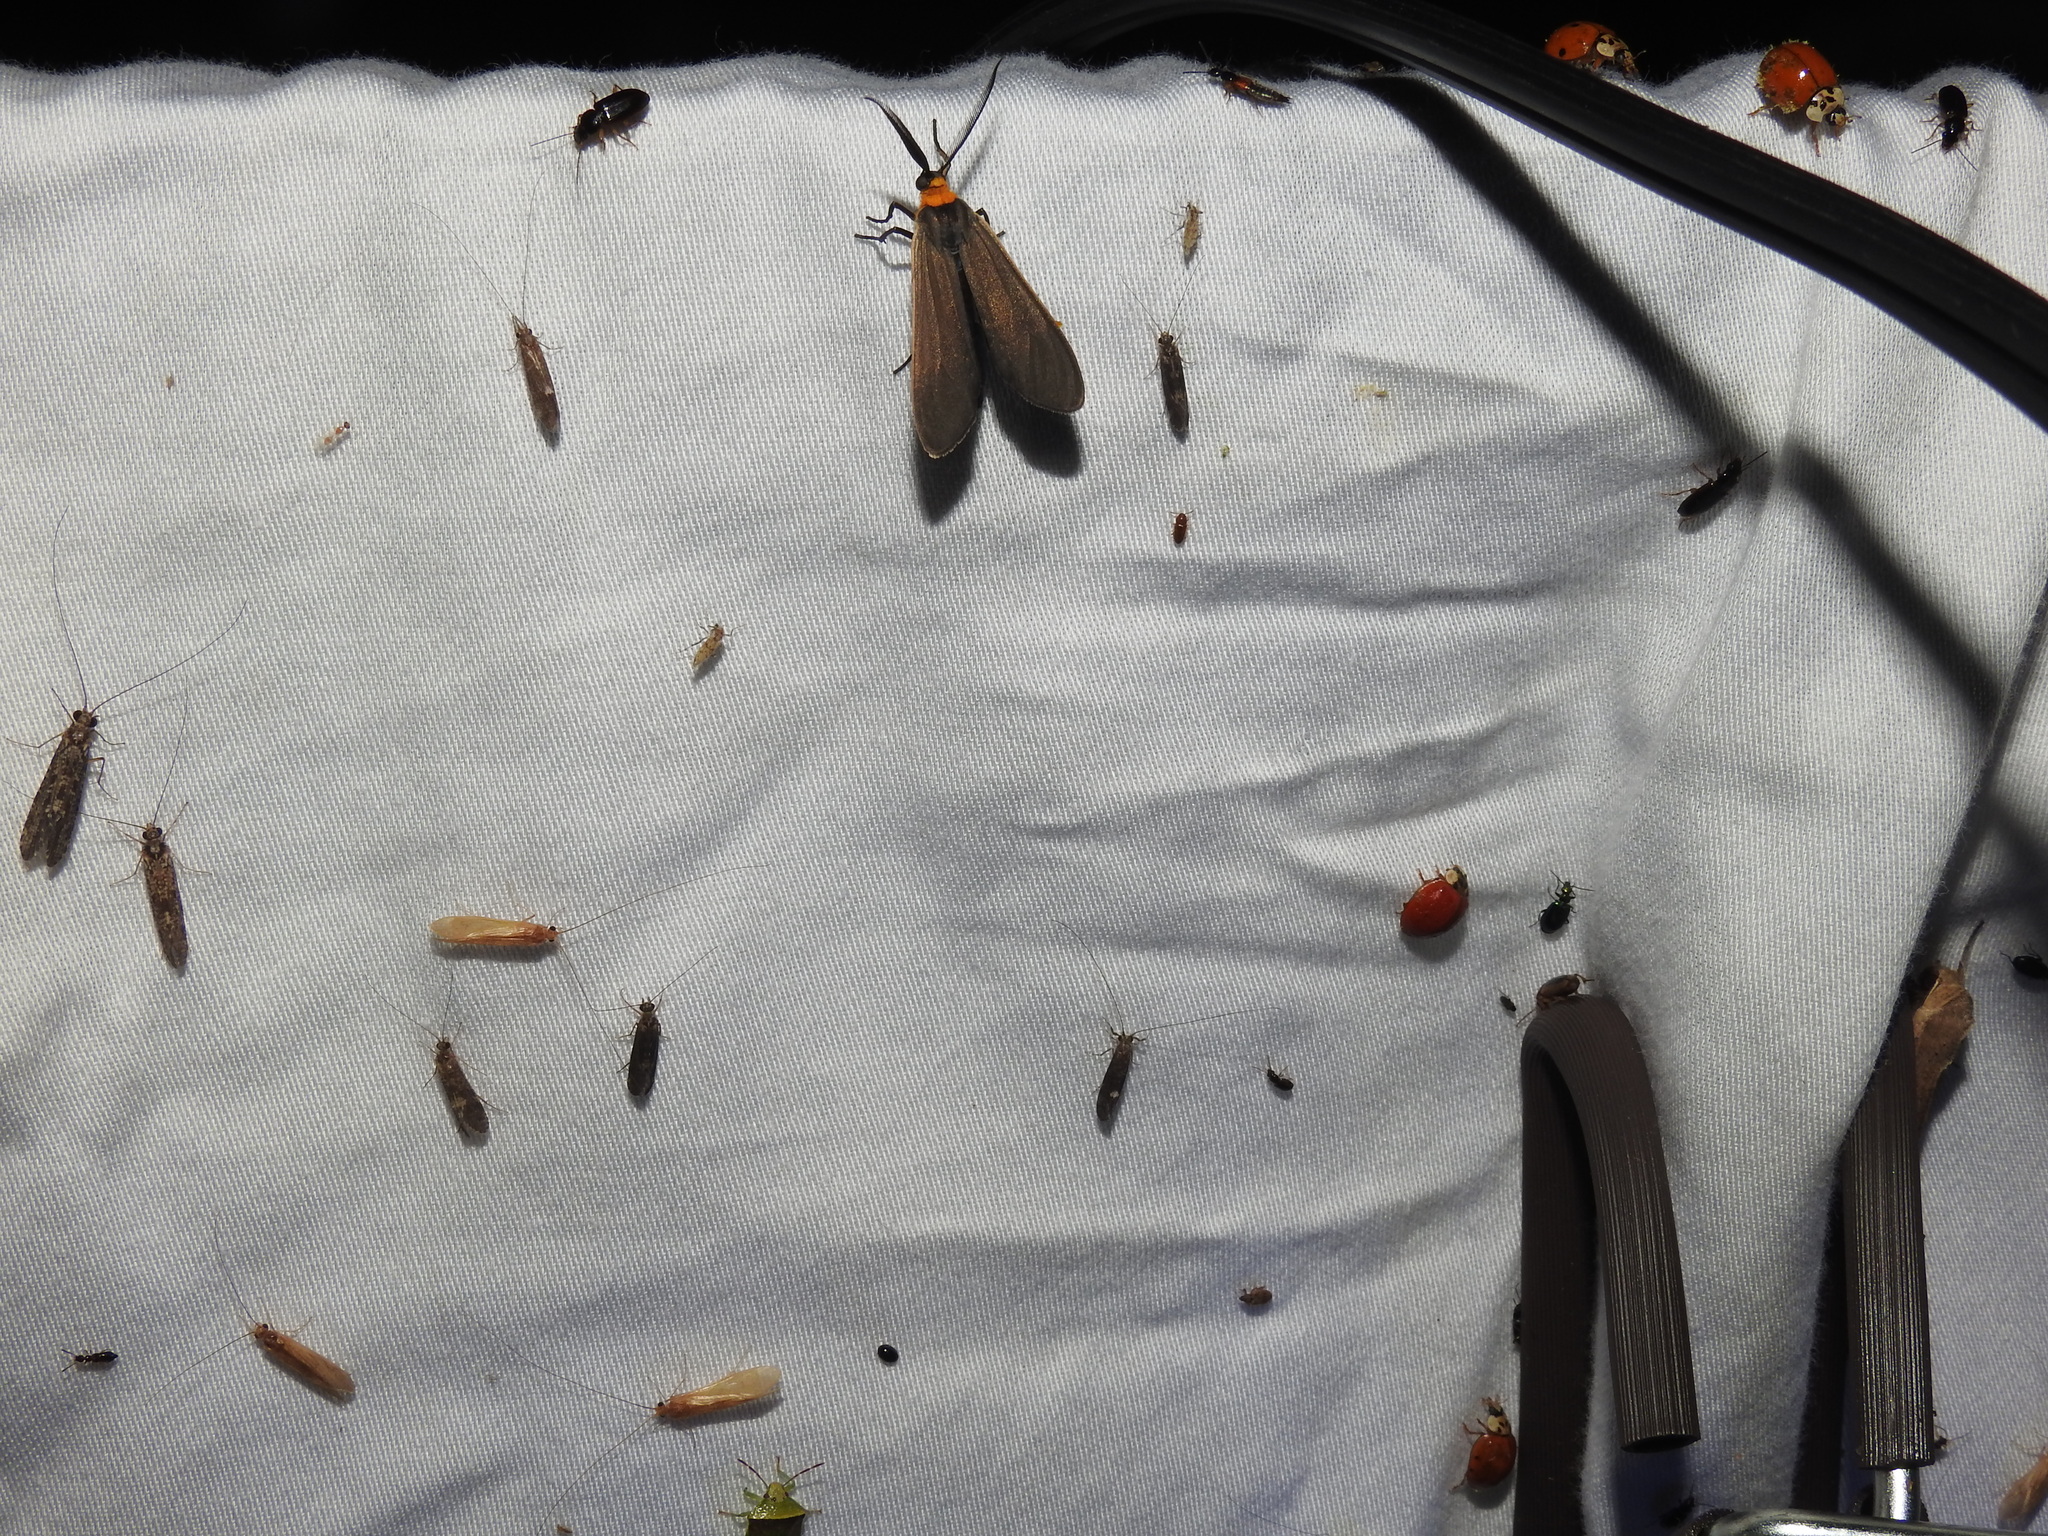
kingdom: Animalia
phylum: Arthropoda
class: Insecta
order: Lepidoptera
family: Erebidae
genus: Cisseps
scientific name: Cisseps fulvicollis
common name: Yellow-collared scape moth
